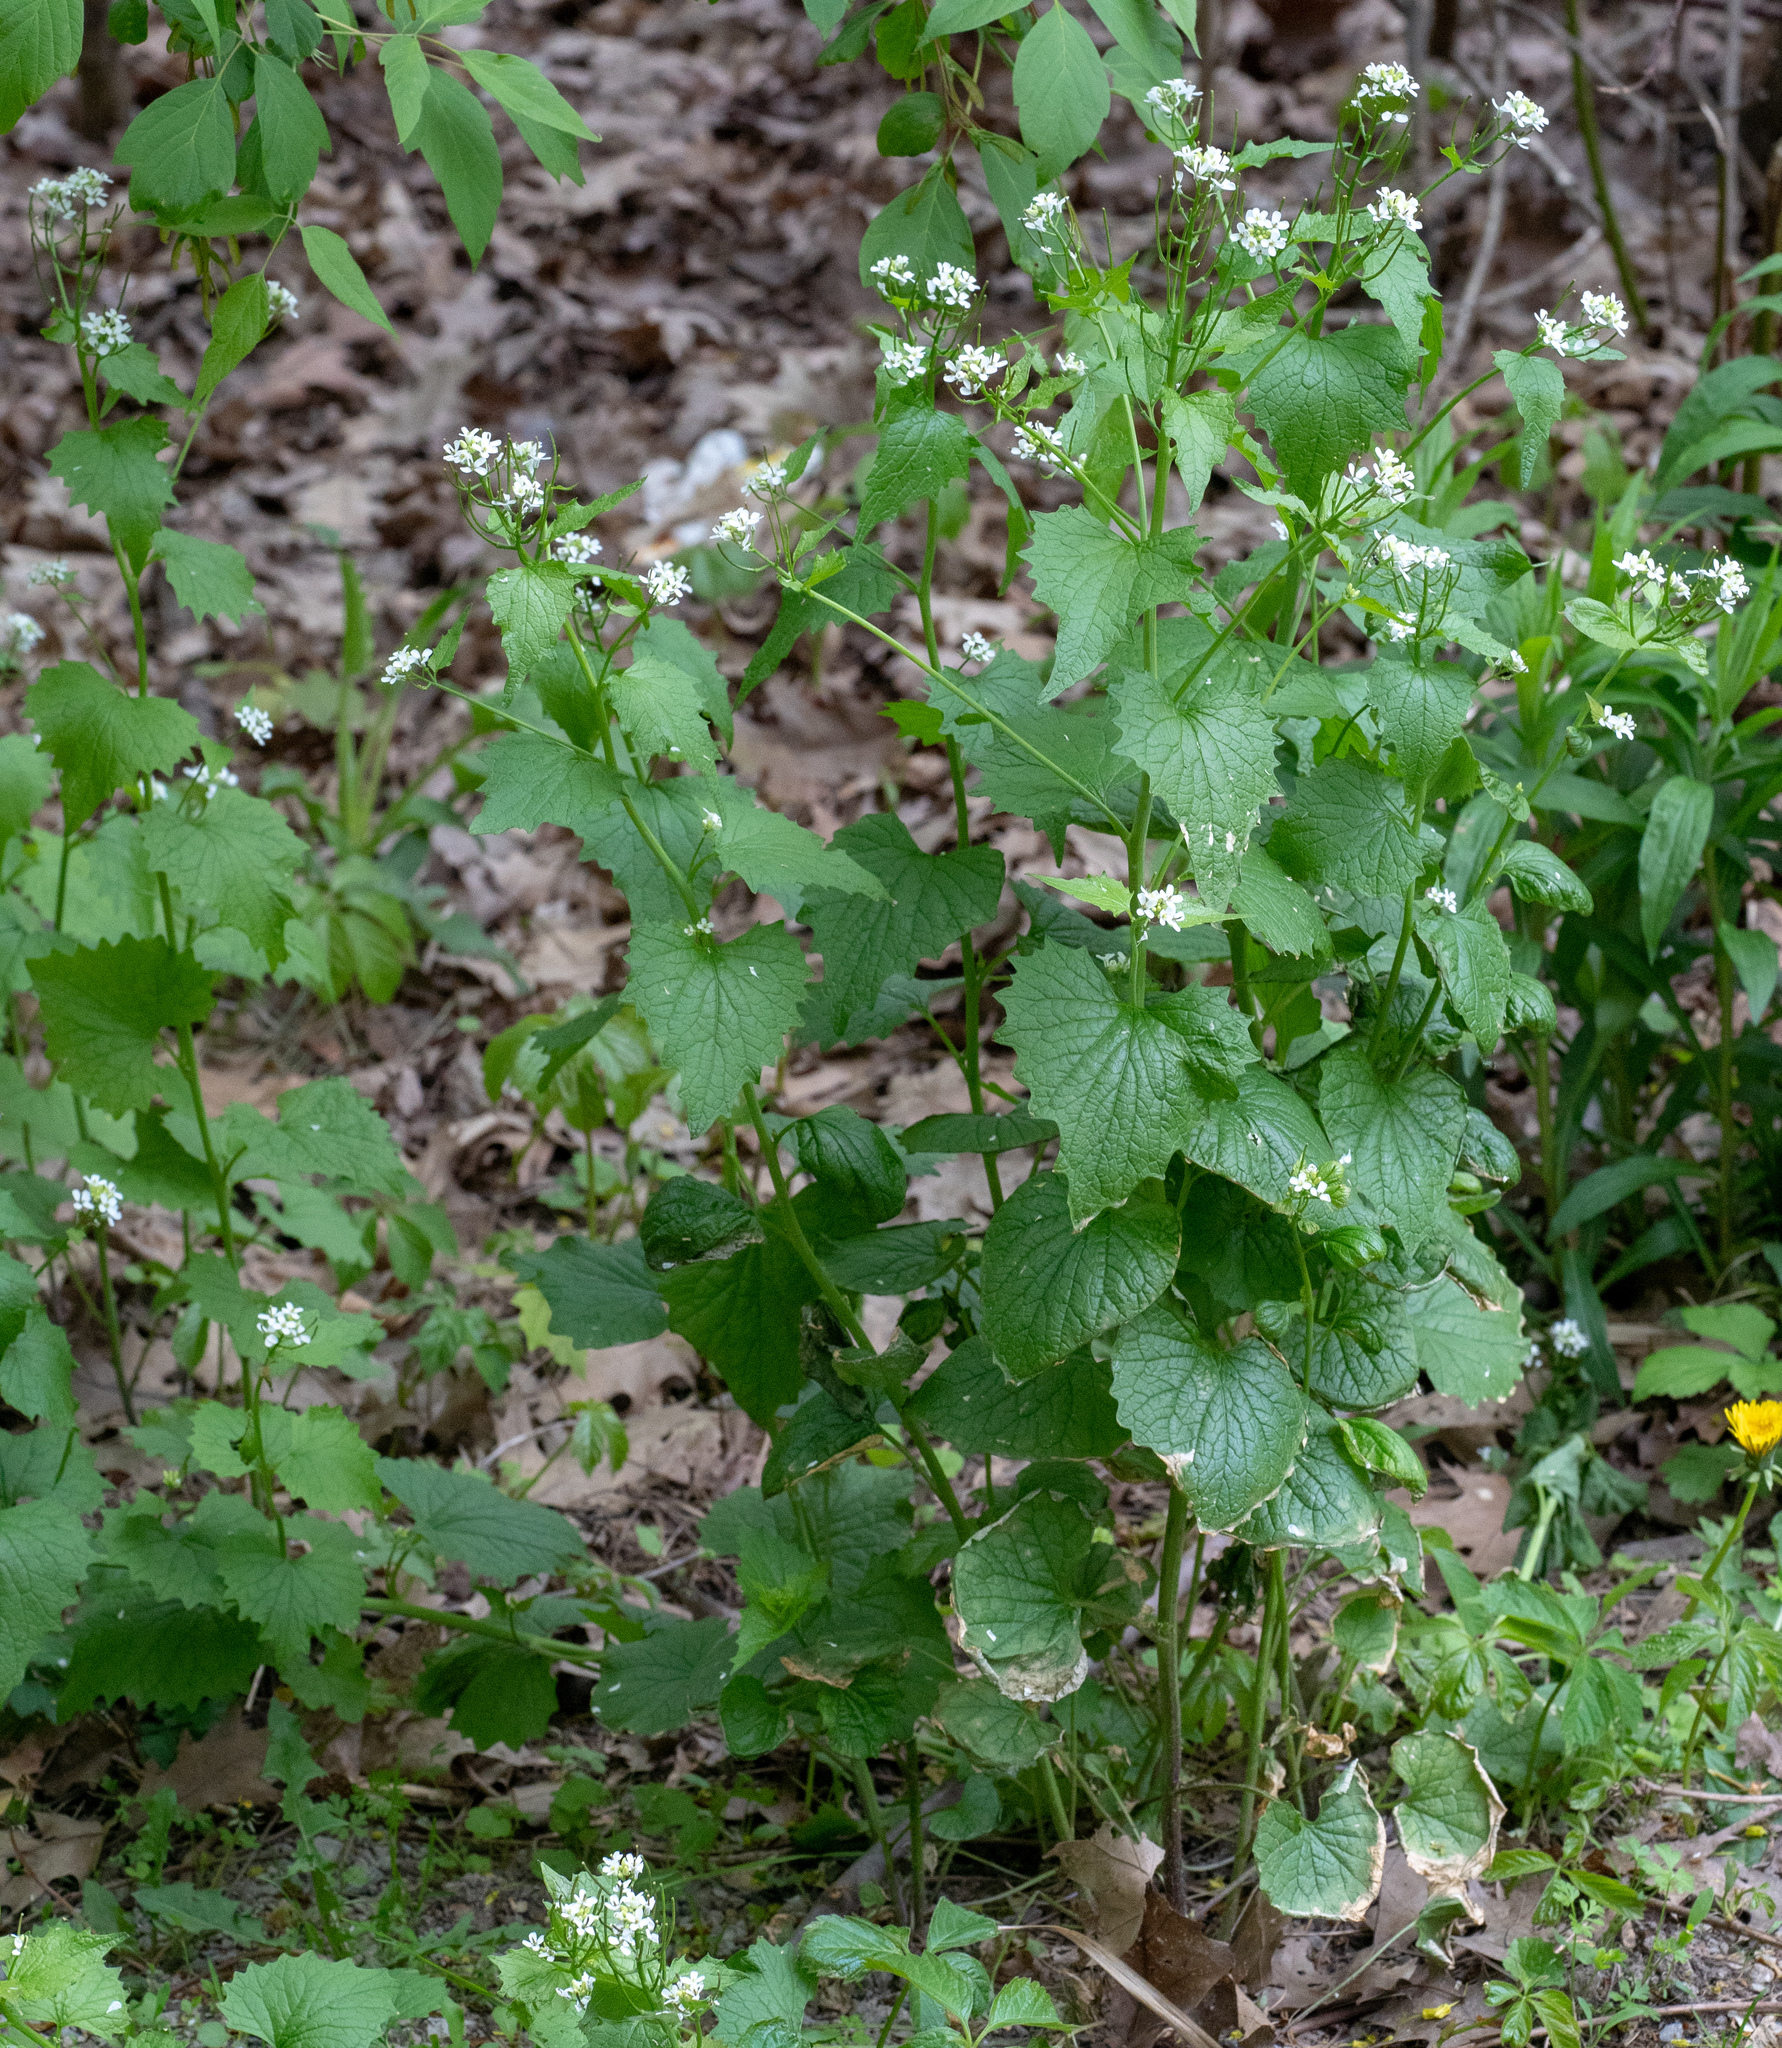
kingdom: Plantae
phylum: Tracheophyta
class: Magnoliopsida
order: Brassicales
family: Brassicaceae
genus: Alliaria
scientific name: Alliaria petiolata
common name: Garlic mustard
